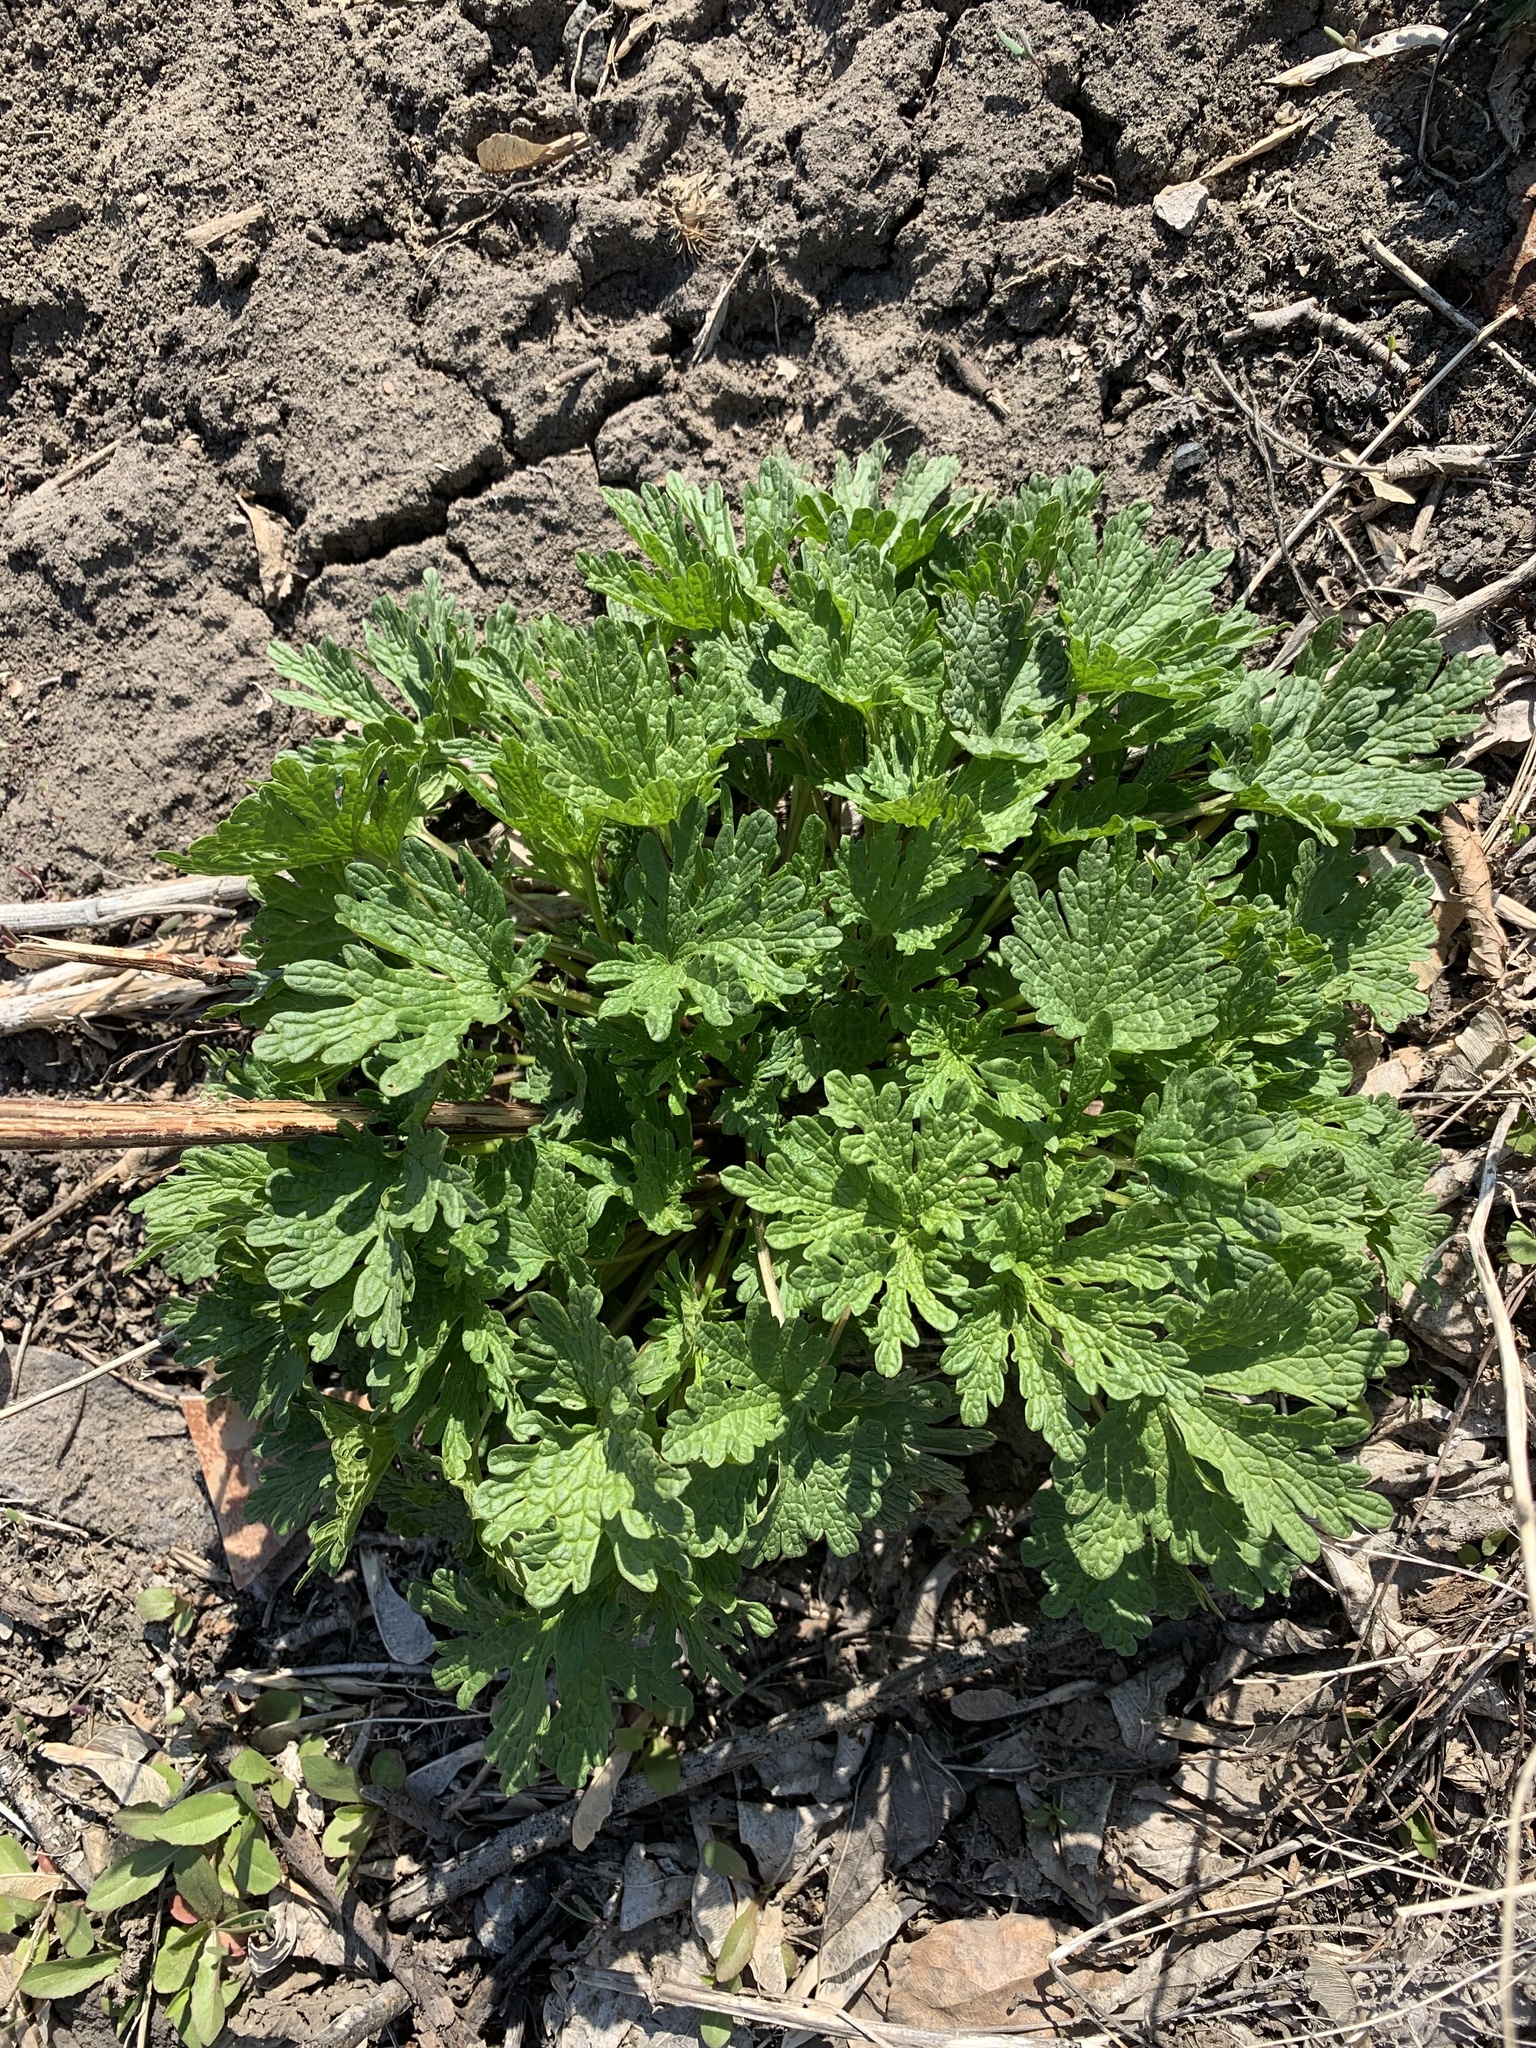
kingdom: Plantae
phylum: Tracheophyta
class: Magnoliopsida
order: Lamiales
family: Lamiaceae
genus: Leonurus
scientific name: Leonurus quinquelobatus
